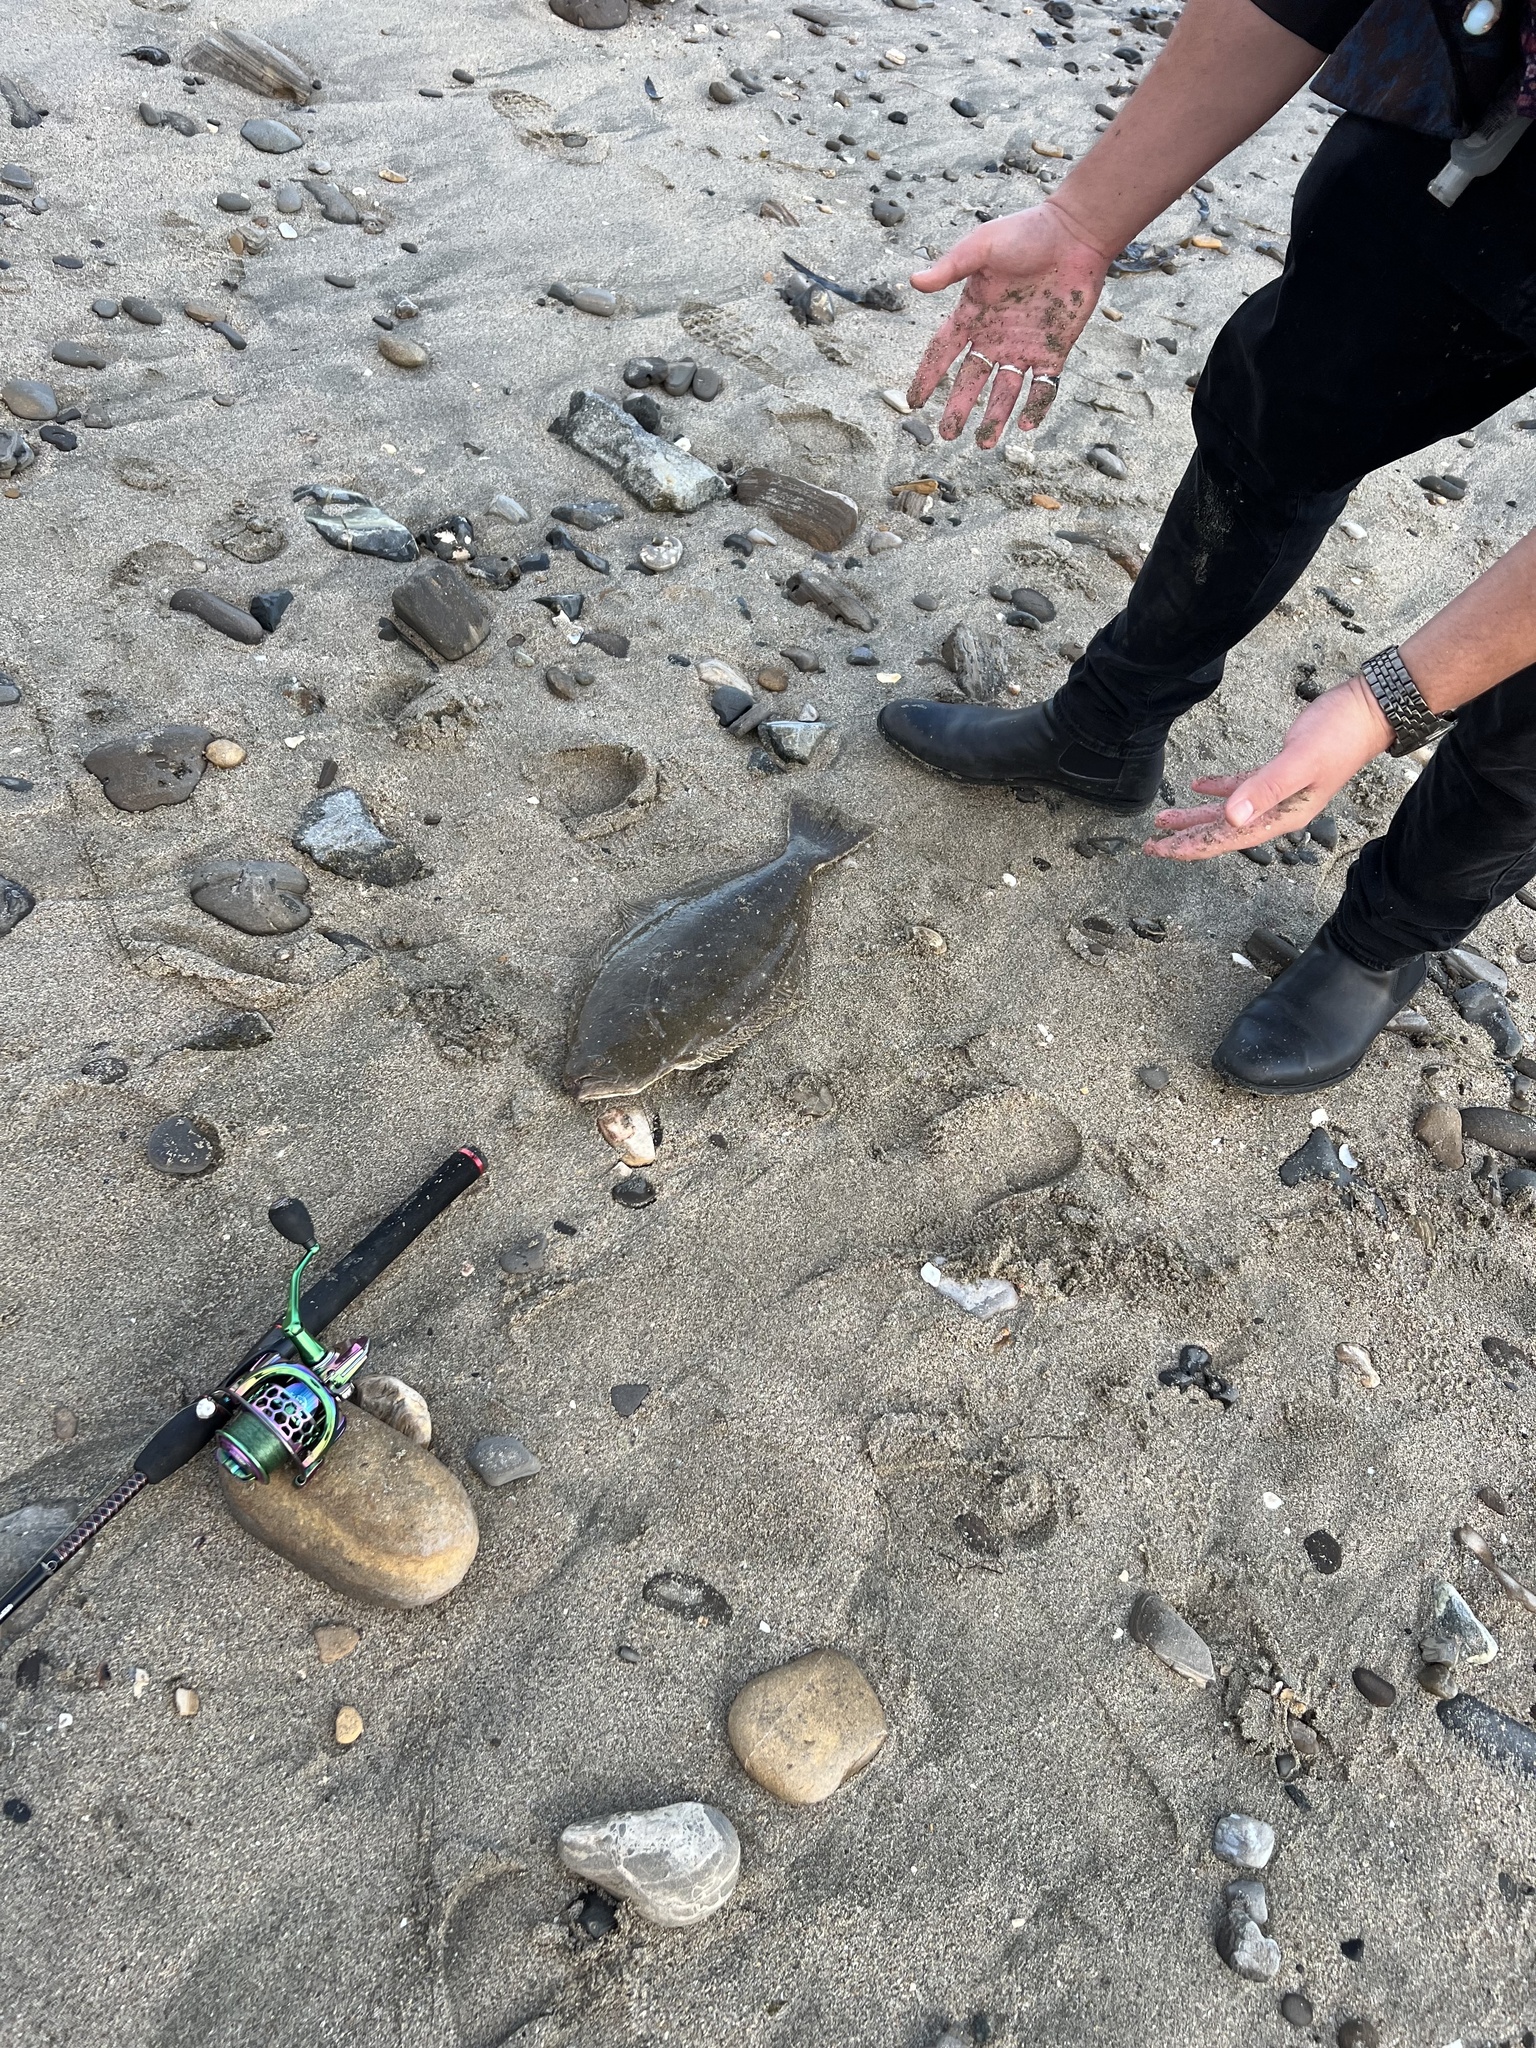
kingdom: Animalia
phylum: Chordata
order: Pleuronectiformes
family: Paralichthyidae
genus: Paralichthys
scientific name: Paralichthys californicus
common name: California halibut
